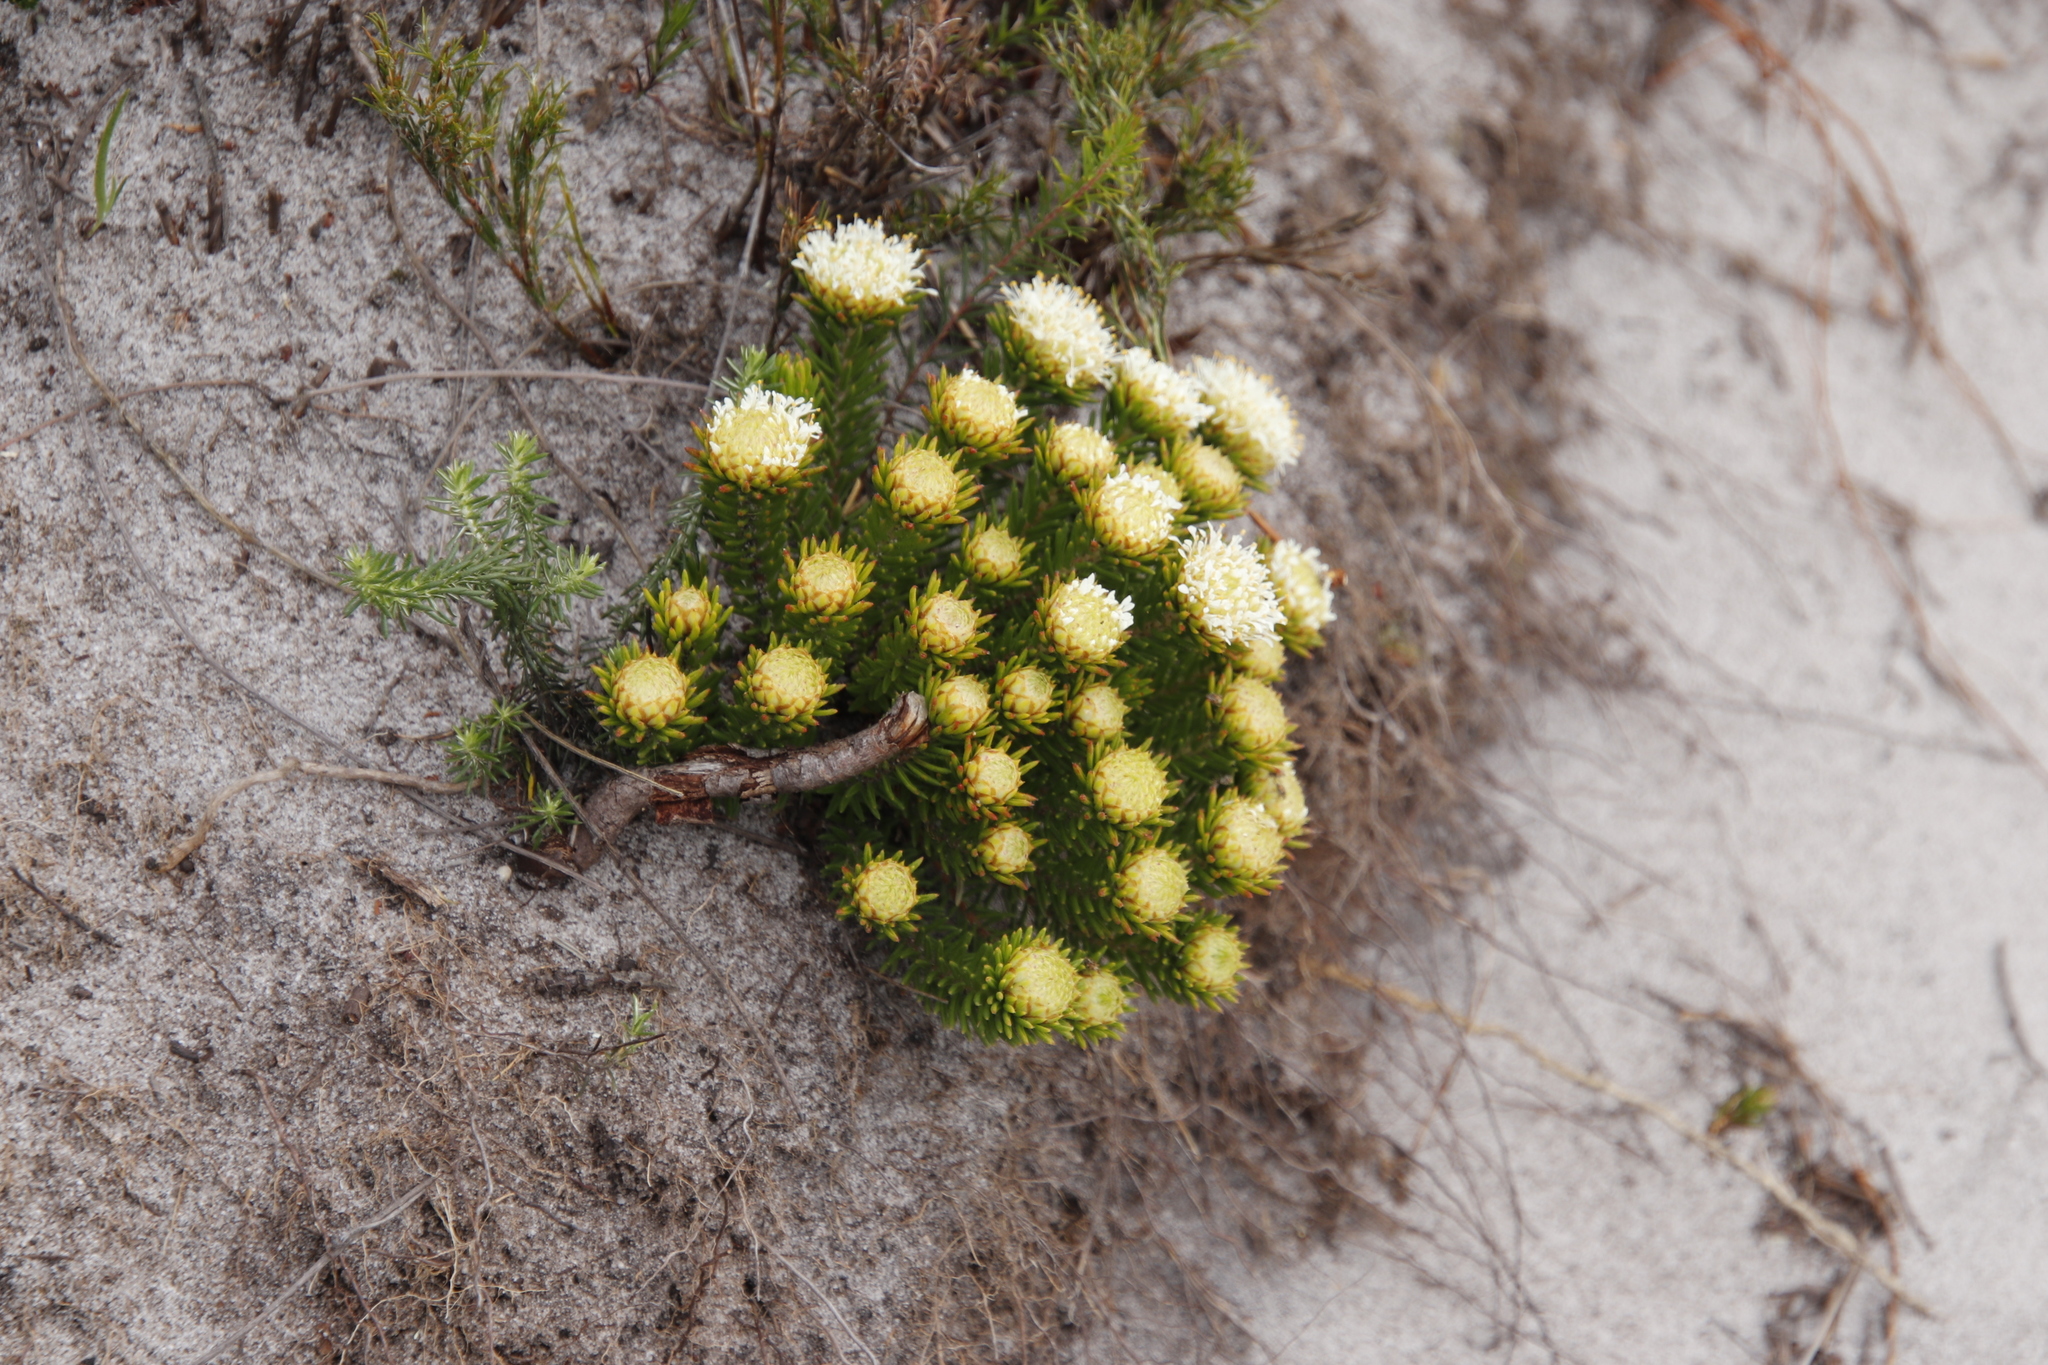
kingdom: Plantae
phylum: Tracheophyta
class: Magnoliopsida
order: Sapindales
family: Rutaceae
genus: Agathosma
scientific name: Agathosma hookeri
